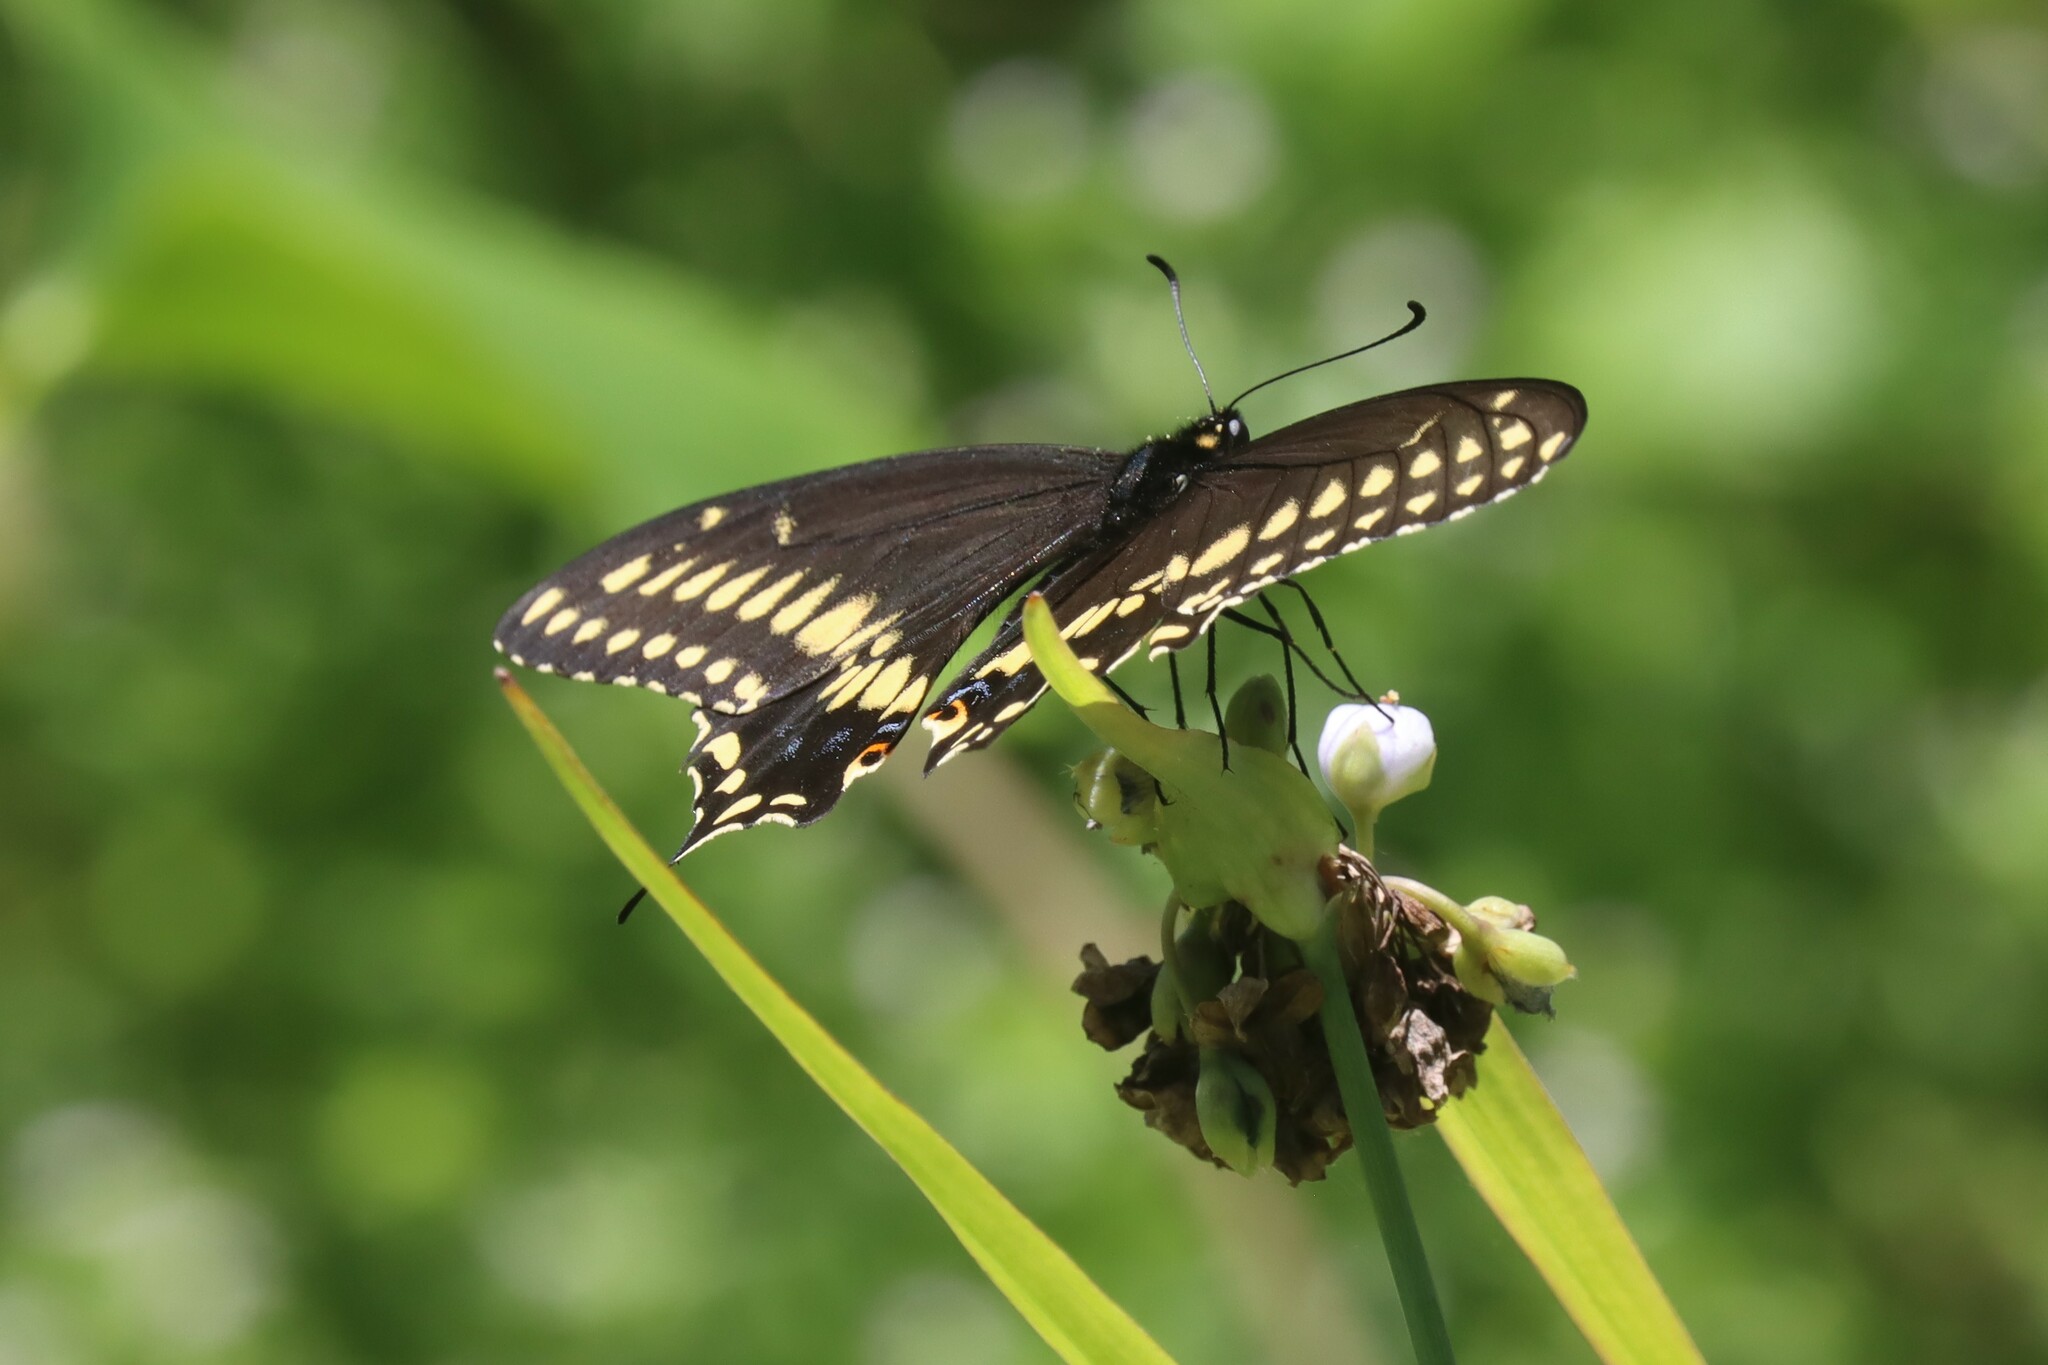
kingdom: Animalia
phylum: Arthropoda
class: Insecta
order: Lepidoptera
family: Papilionidae
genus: Papilio
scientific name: Papilio polyxenes
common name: Black swallowtail
